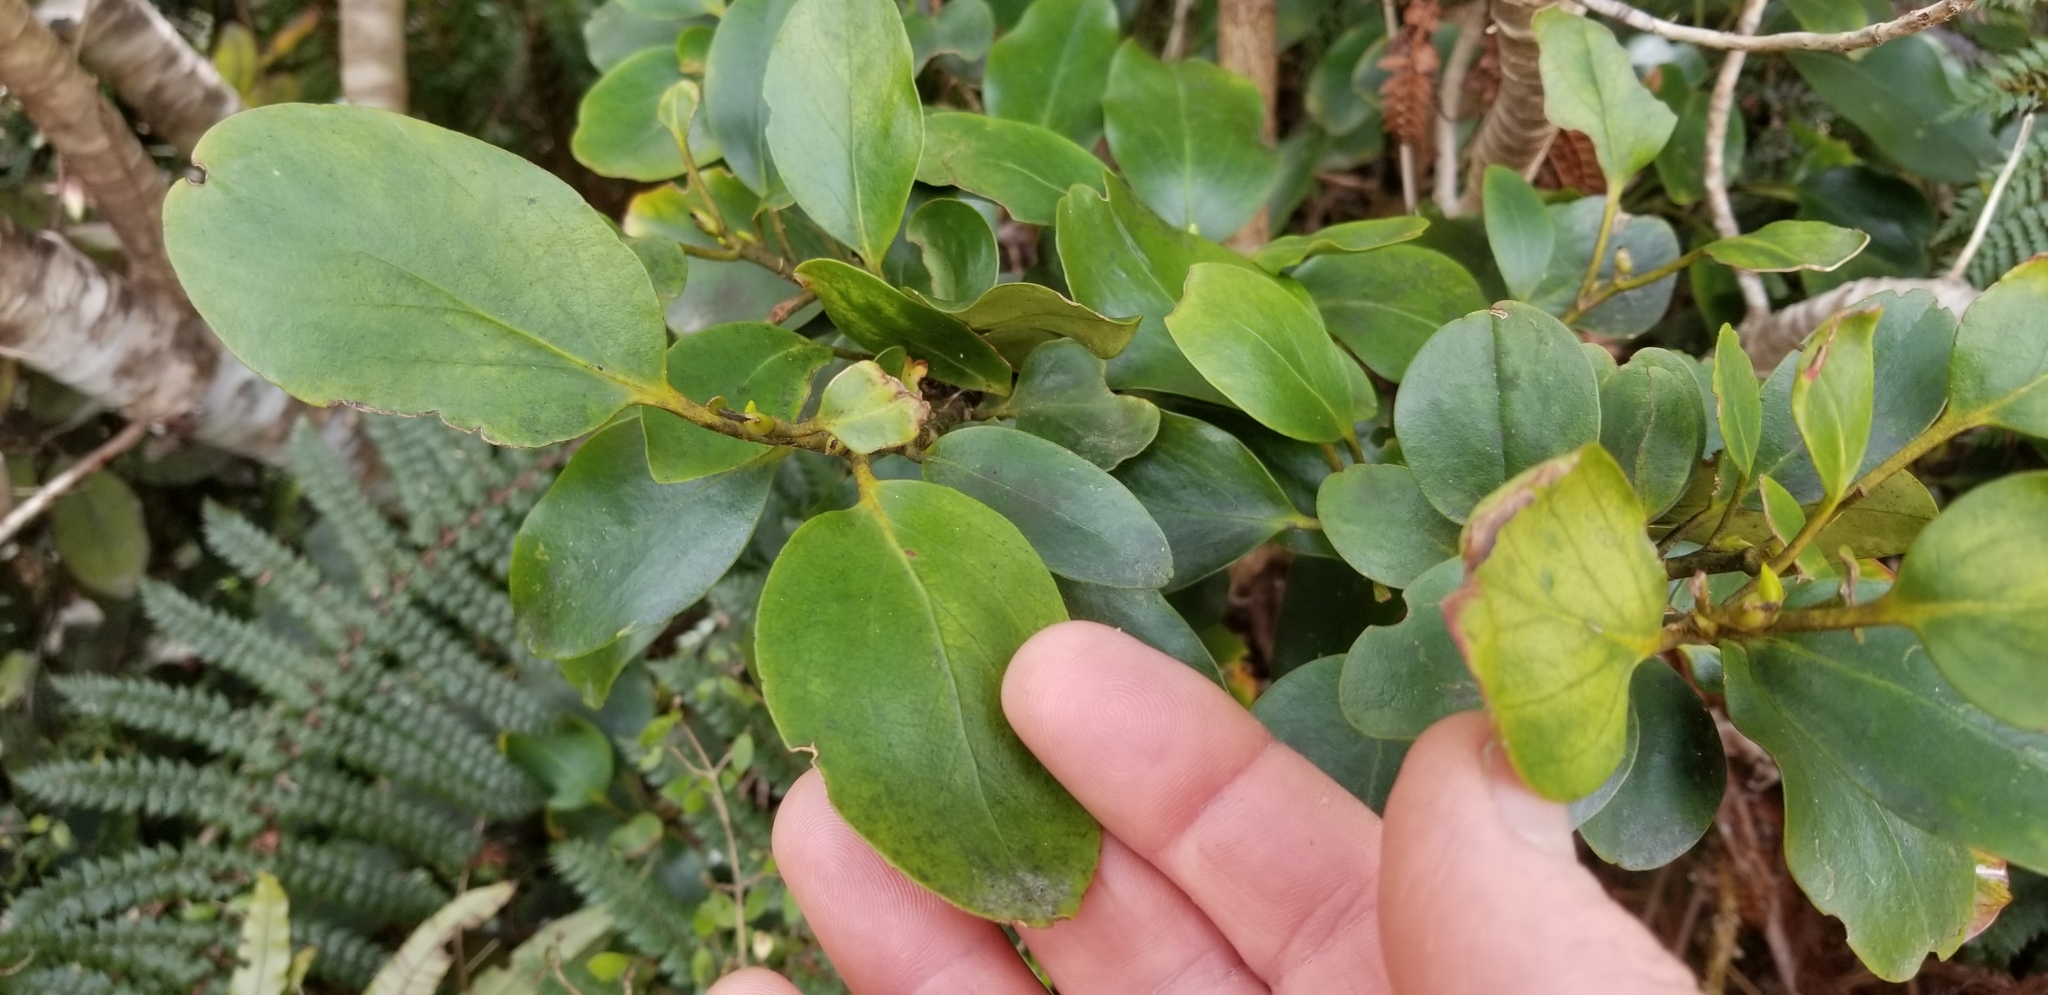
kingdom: Plantae
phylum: Tracheophyta
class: Magnoliopsida
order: Apiales
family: Griseliniaceae
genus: Griselinia
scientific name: Griselinia littoralis
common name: New zealand broadleaf
